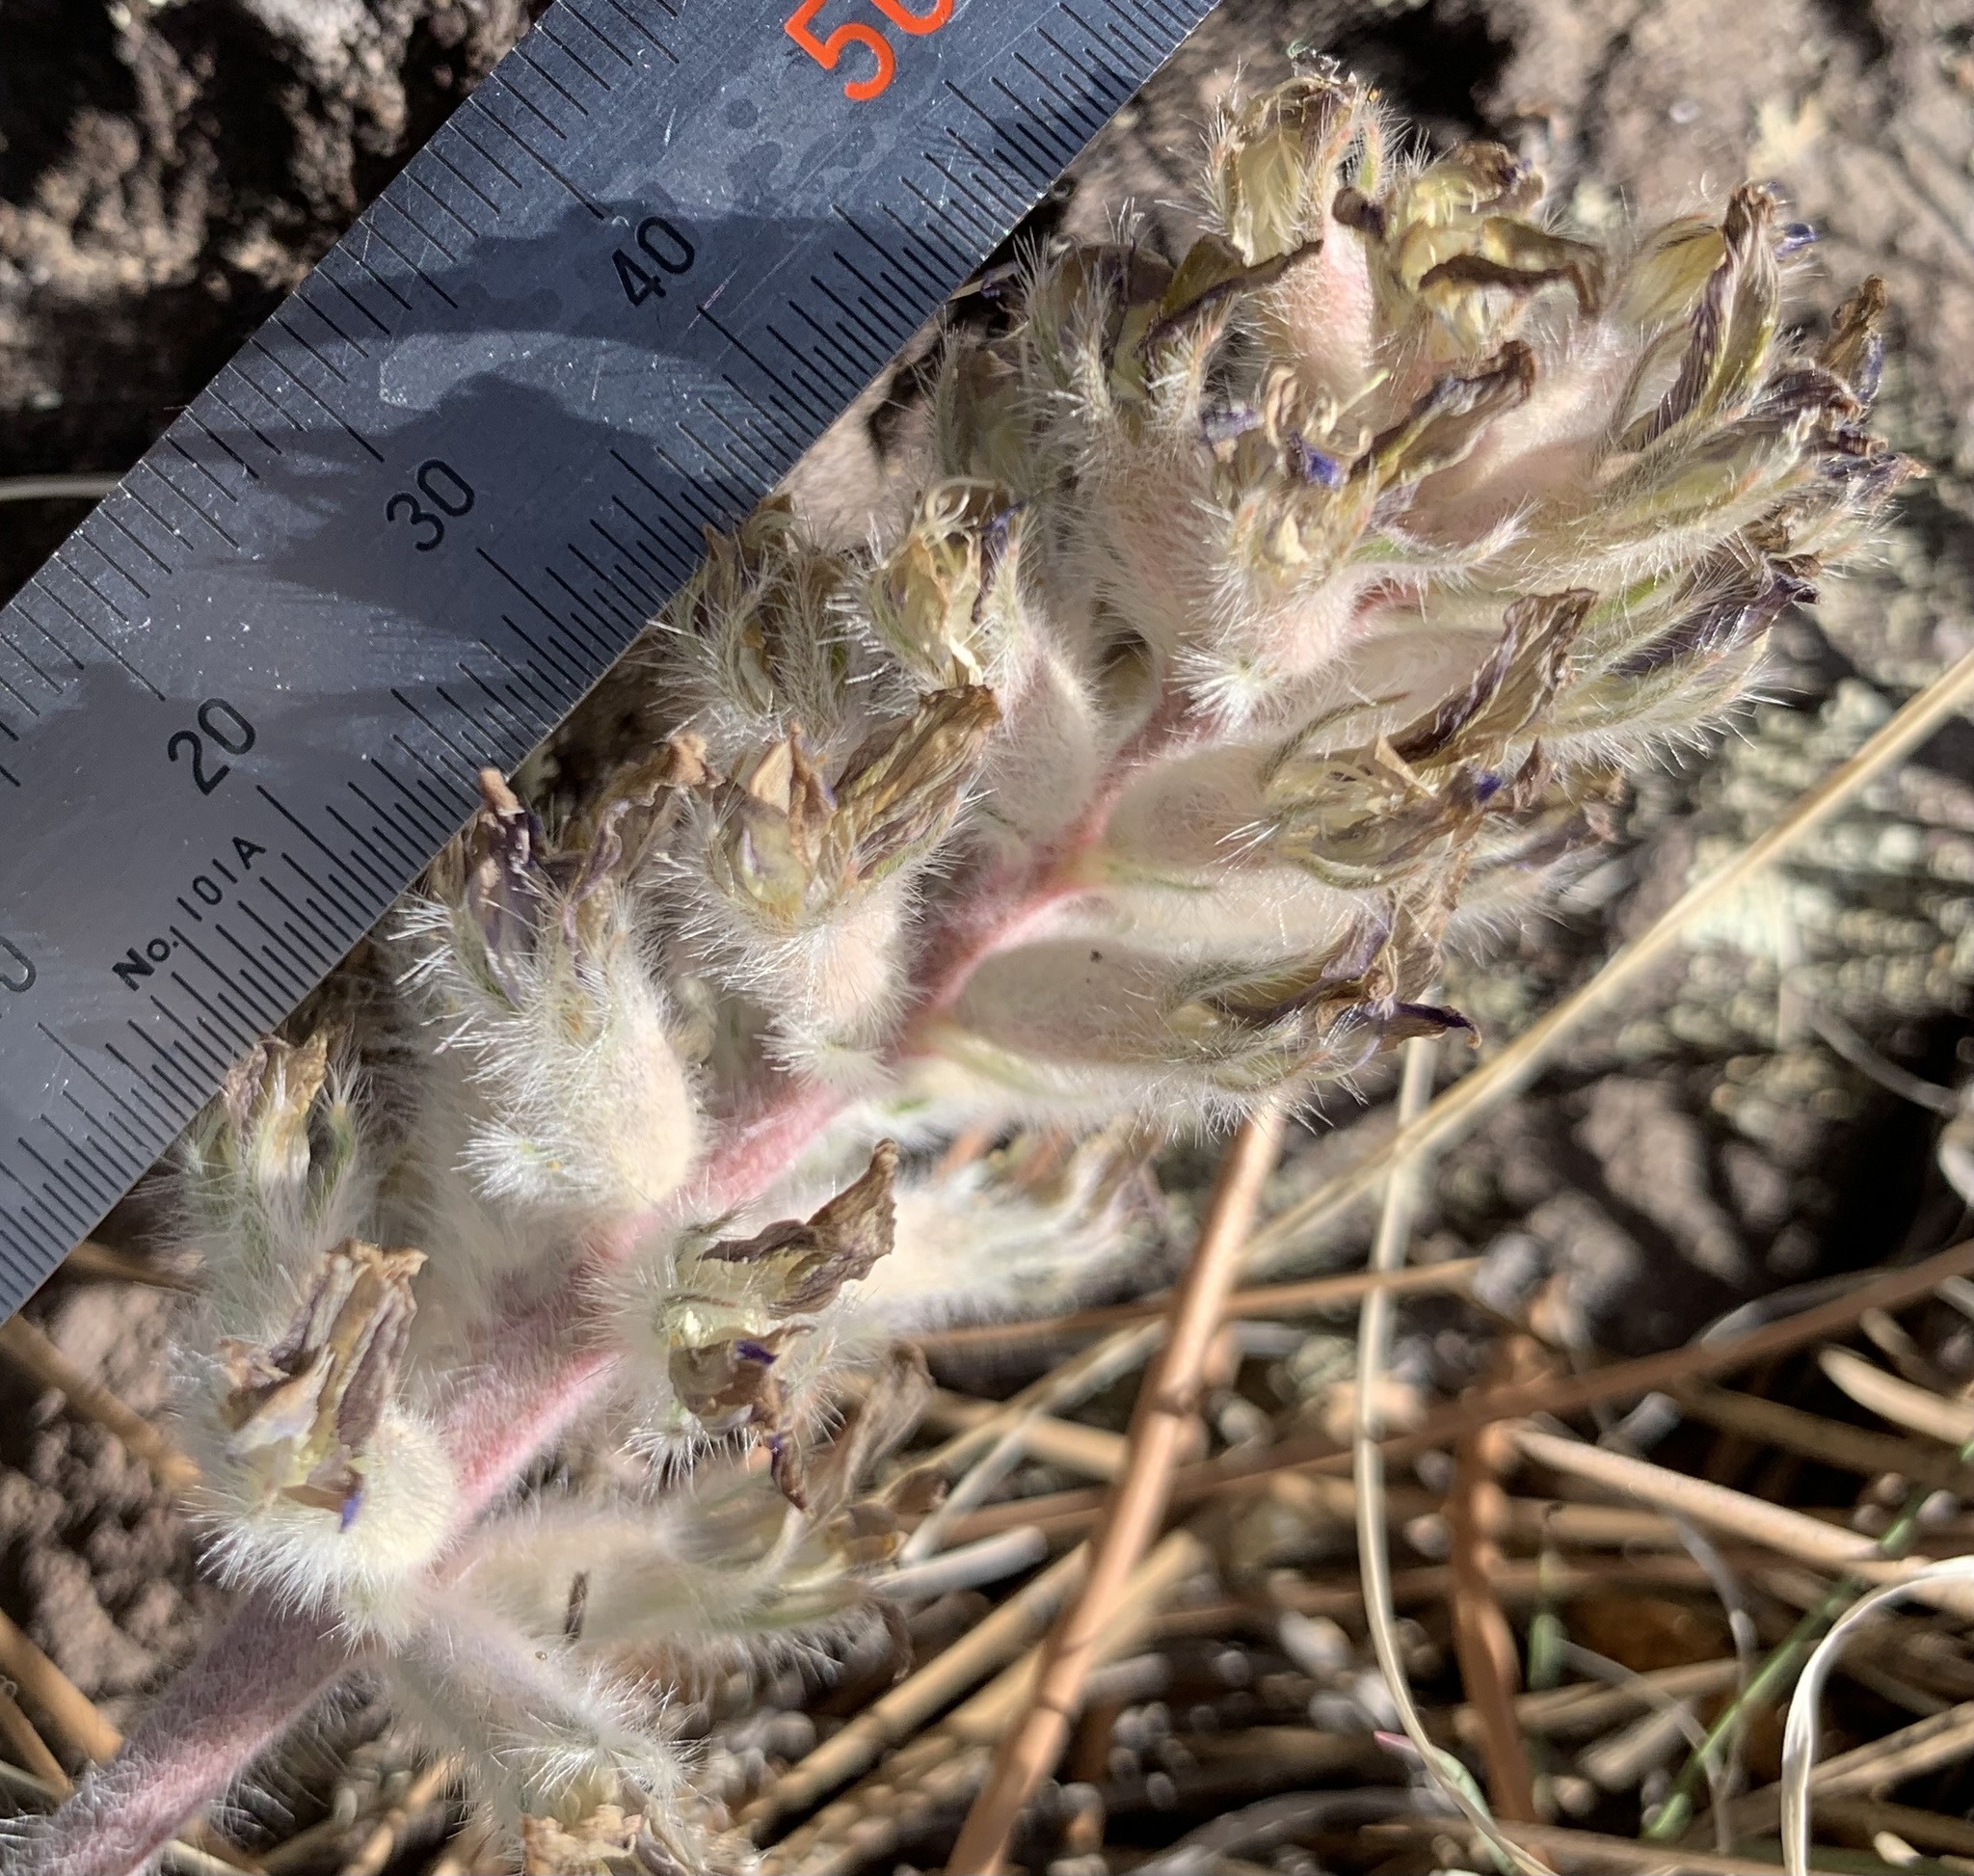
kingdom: Plantae
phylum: Tracheophyta
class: Magnoliopsida
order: Fabales
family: Fabaceae
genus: Astragalus
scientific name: Astragalus mollissimus
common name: Woolly locoweed
